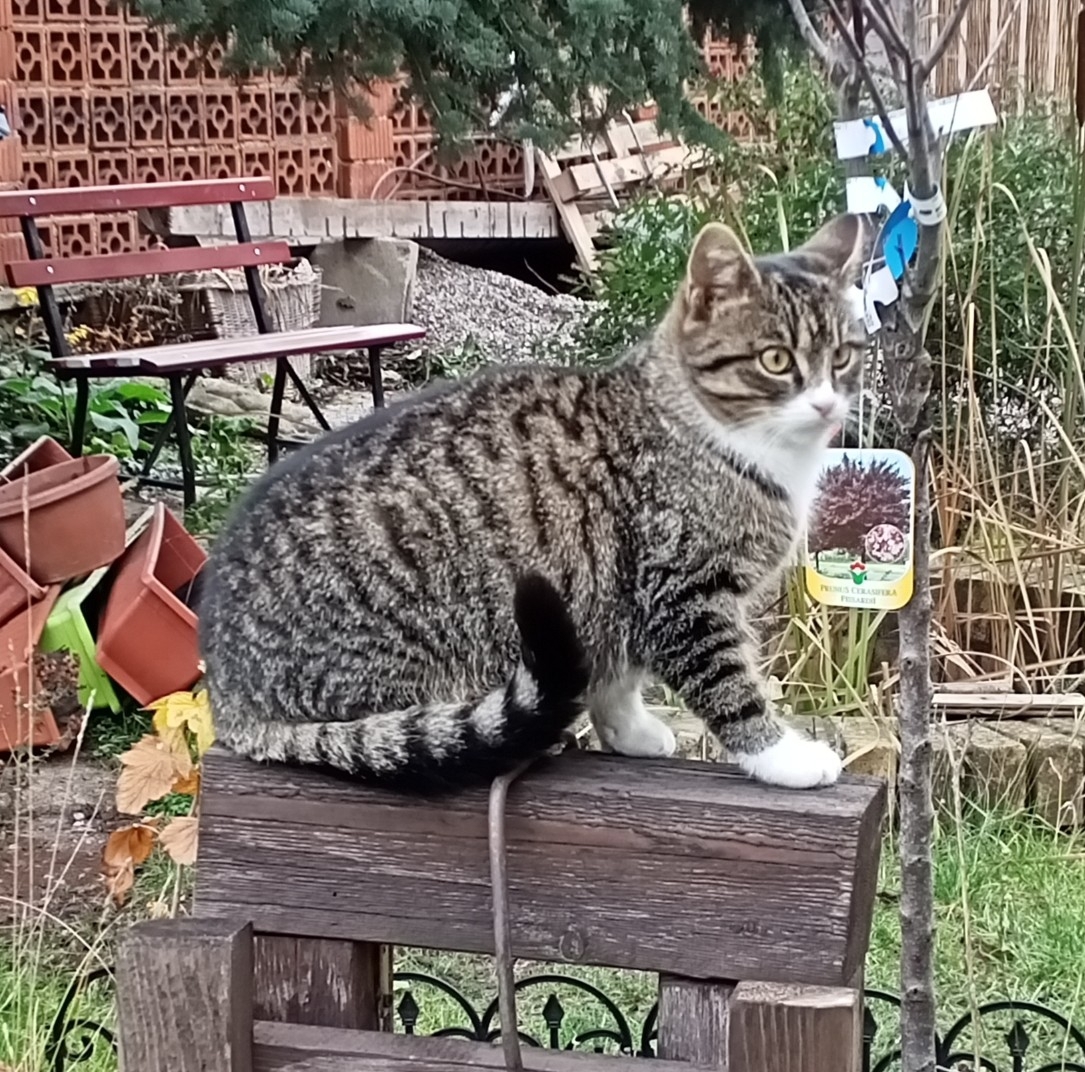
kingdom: Animalia
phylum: Chordata
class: Mammalia
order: Carnivora
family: Felidae
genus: Felis
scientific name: Felis catus
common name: Domestic cat
